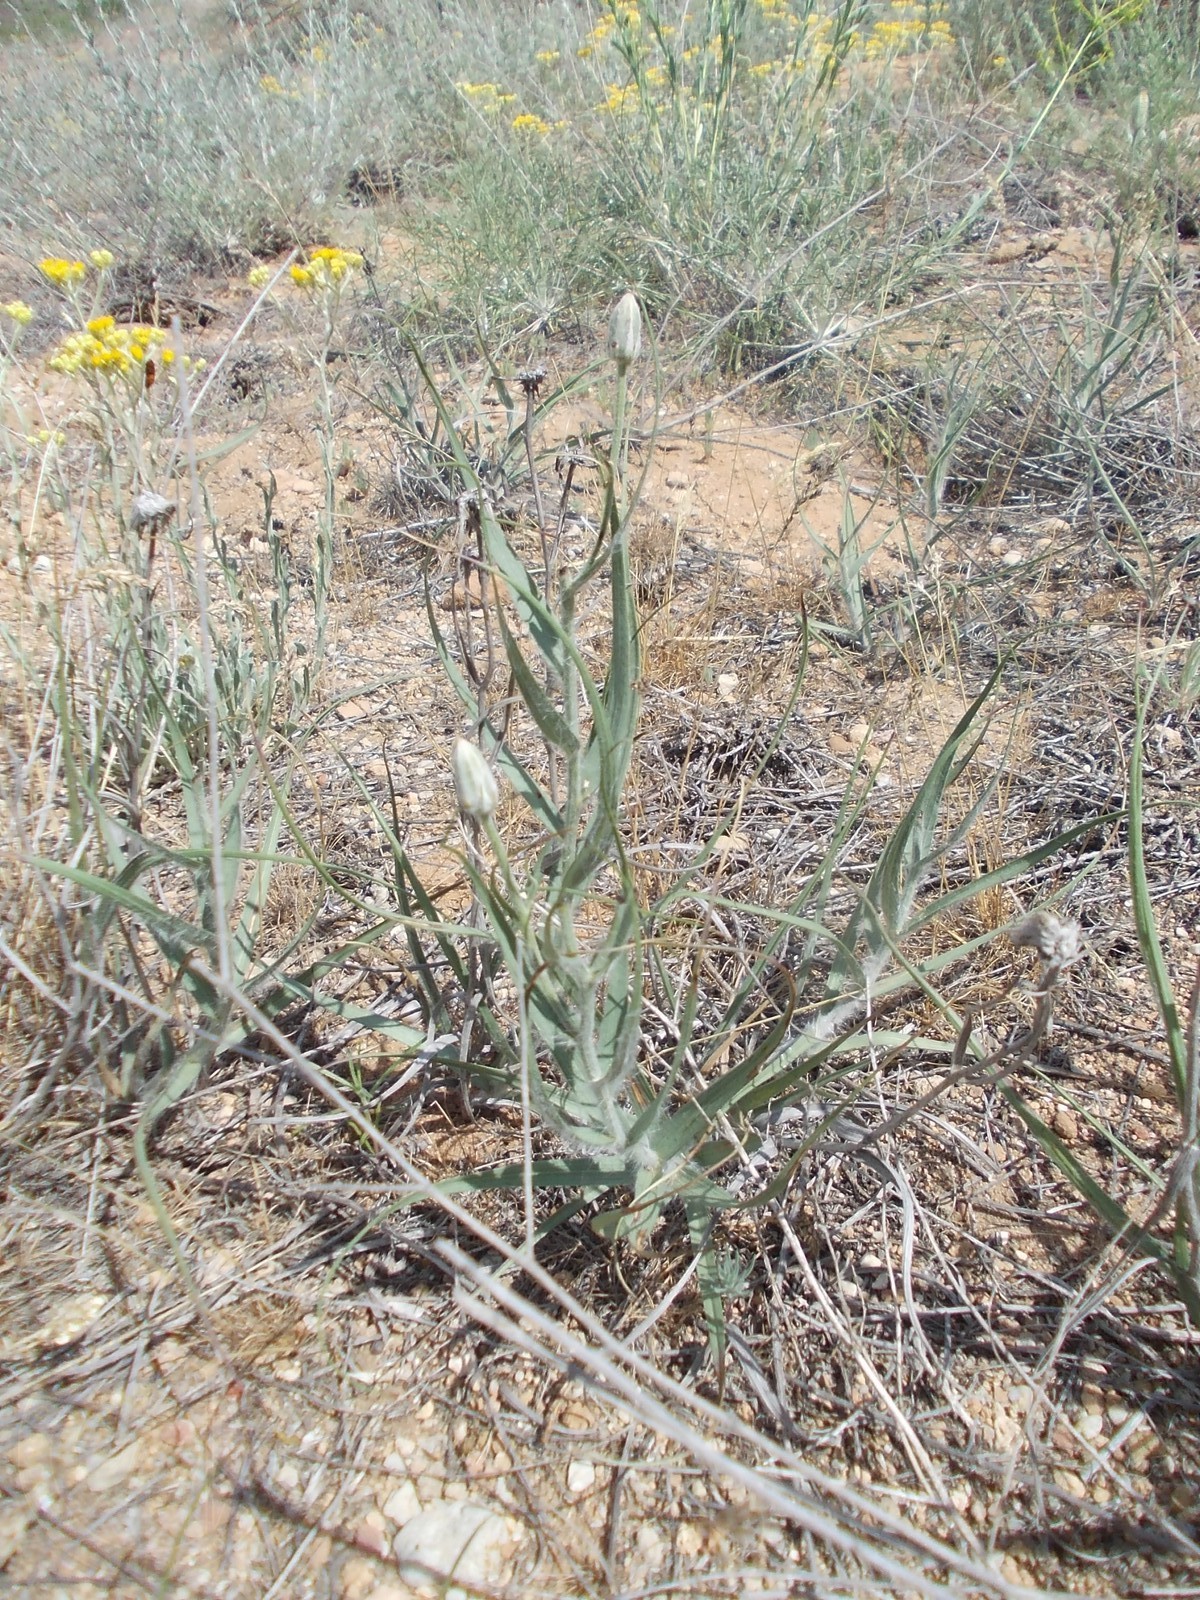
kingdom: Plantae
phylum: Tracheophyta
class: Magnoliopsida
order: Asterales
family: Asteraceae
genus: Gelasia
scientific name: Gelasia ensifolia
